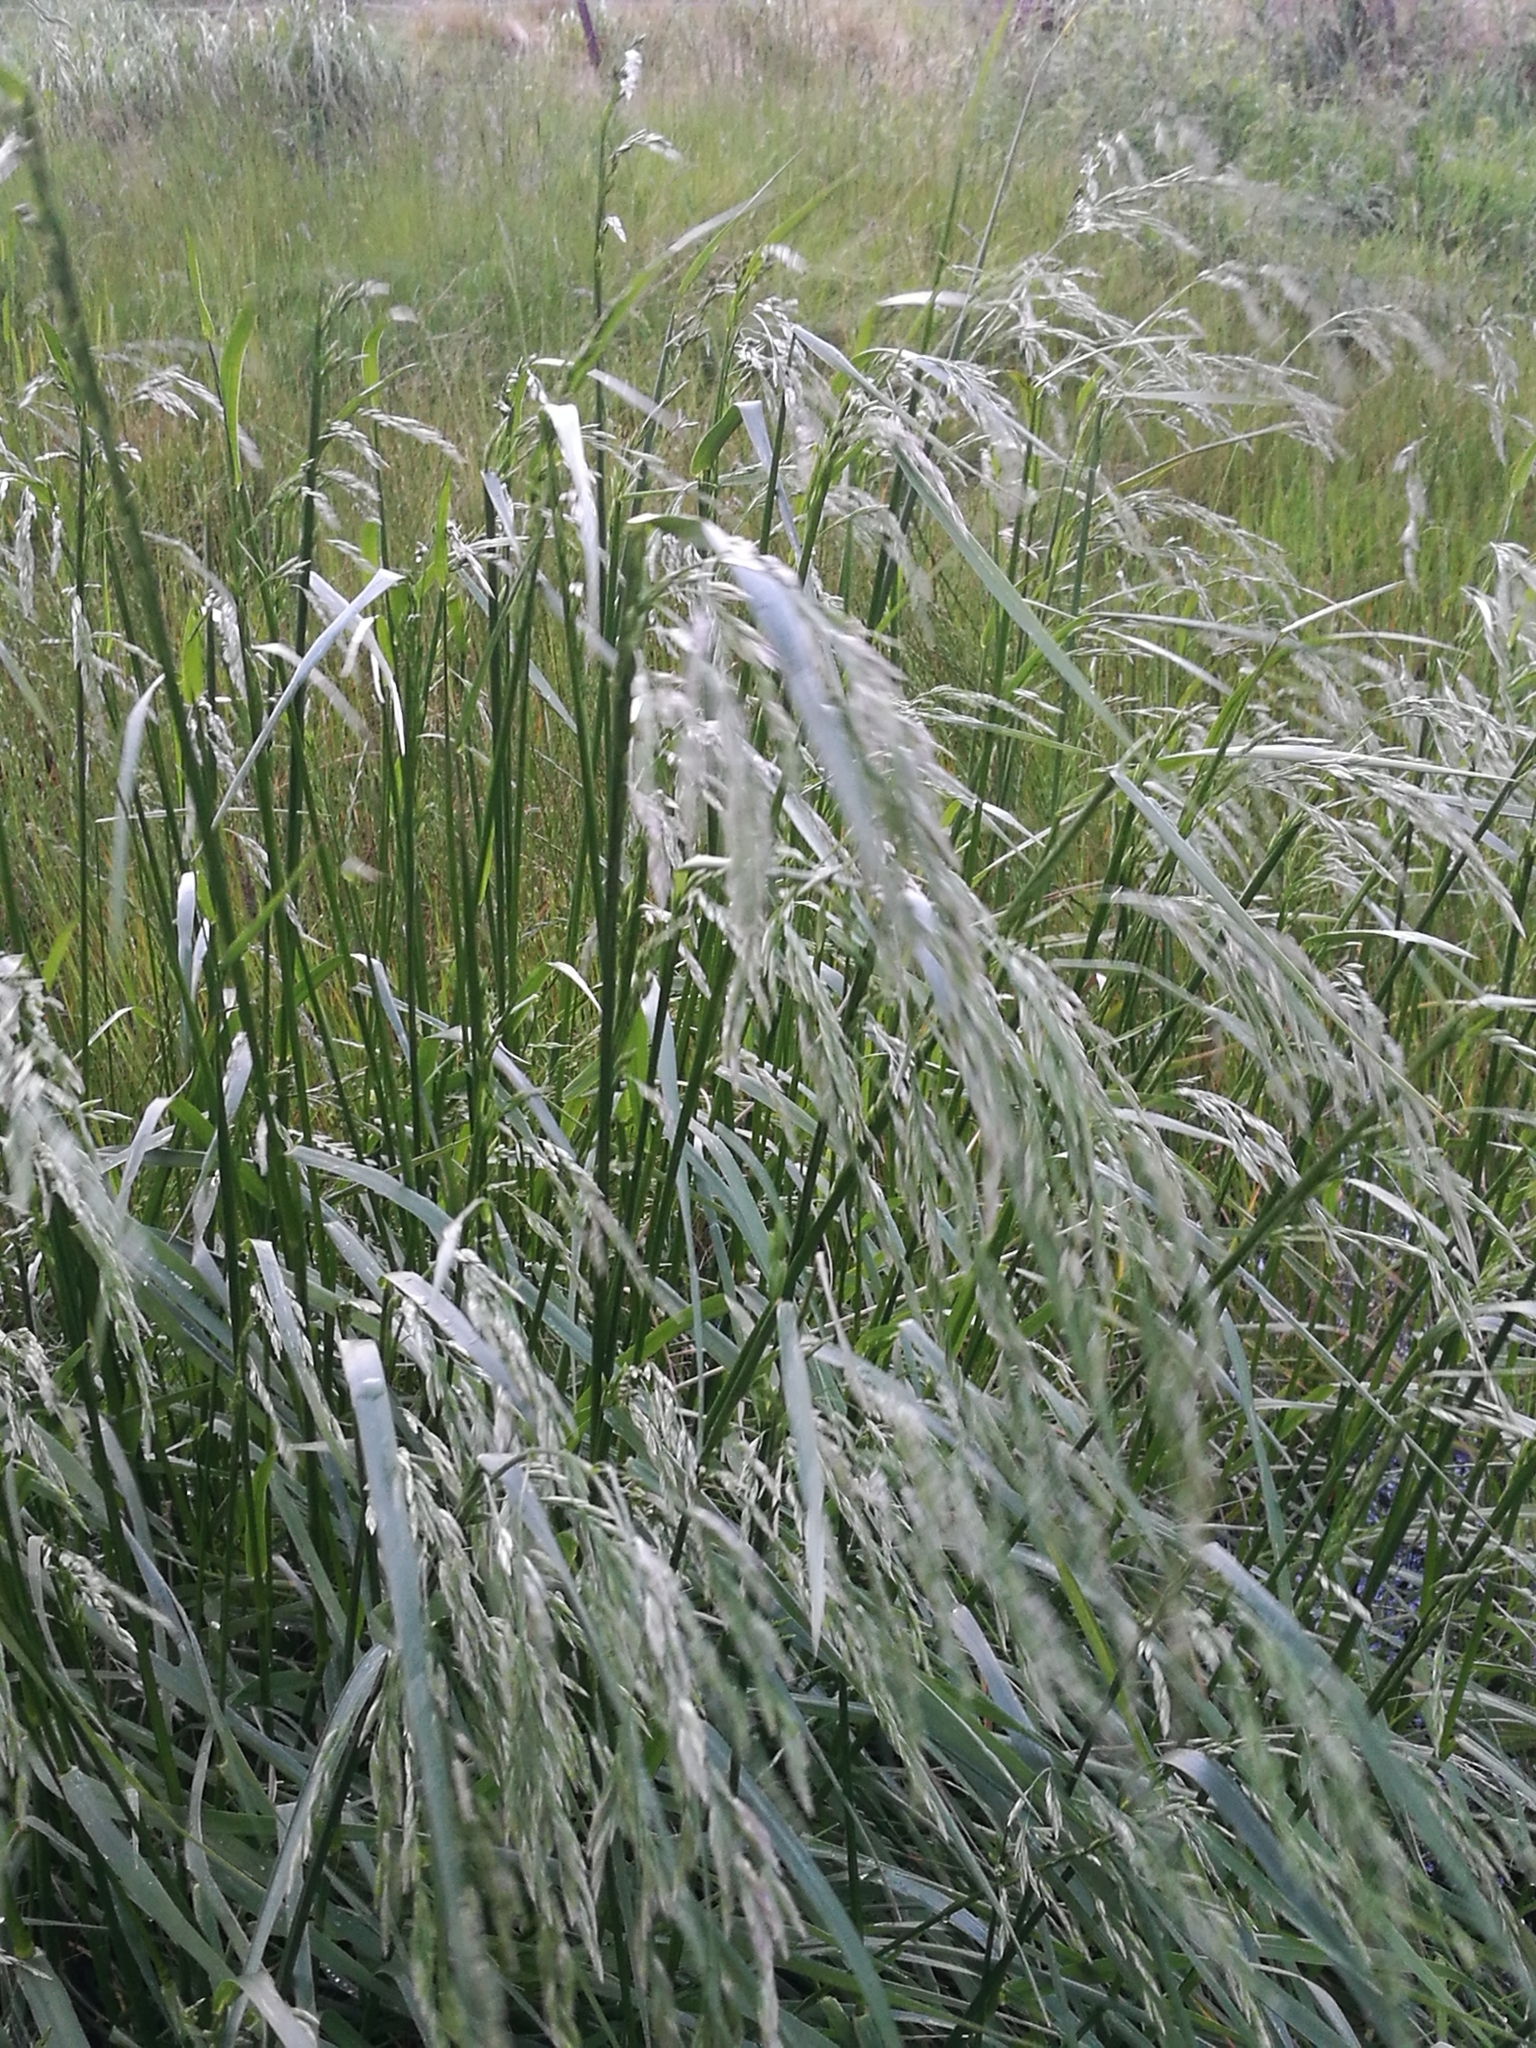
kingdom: Plantae
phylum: Tracheophyta
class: Liliopsida
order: Poales
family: Poaceae
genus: Lolium
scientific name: Lolium arundinaceum
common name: Reed fescue
